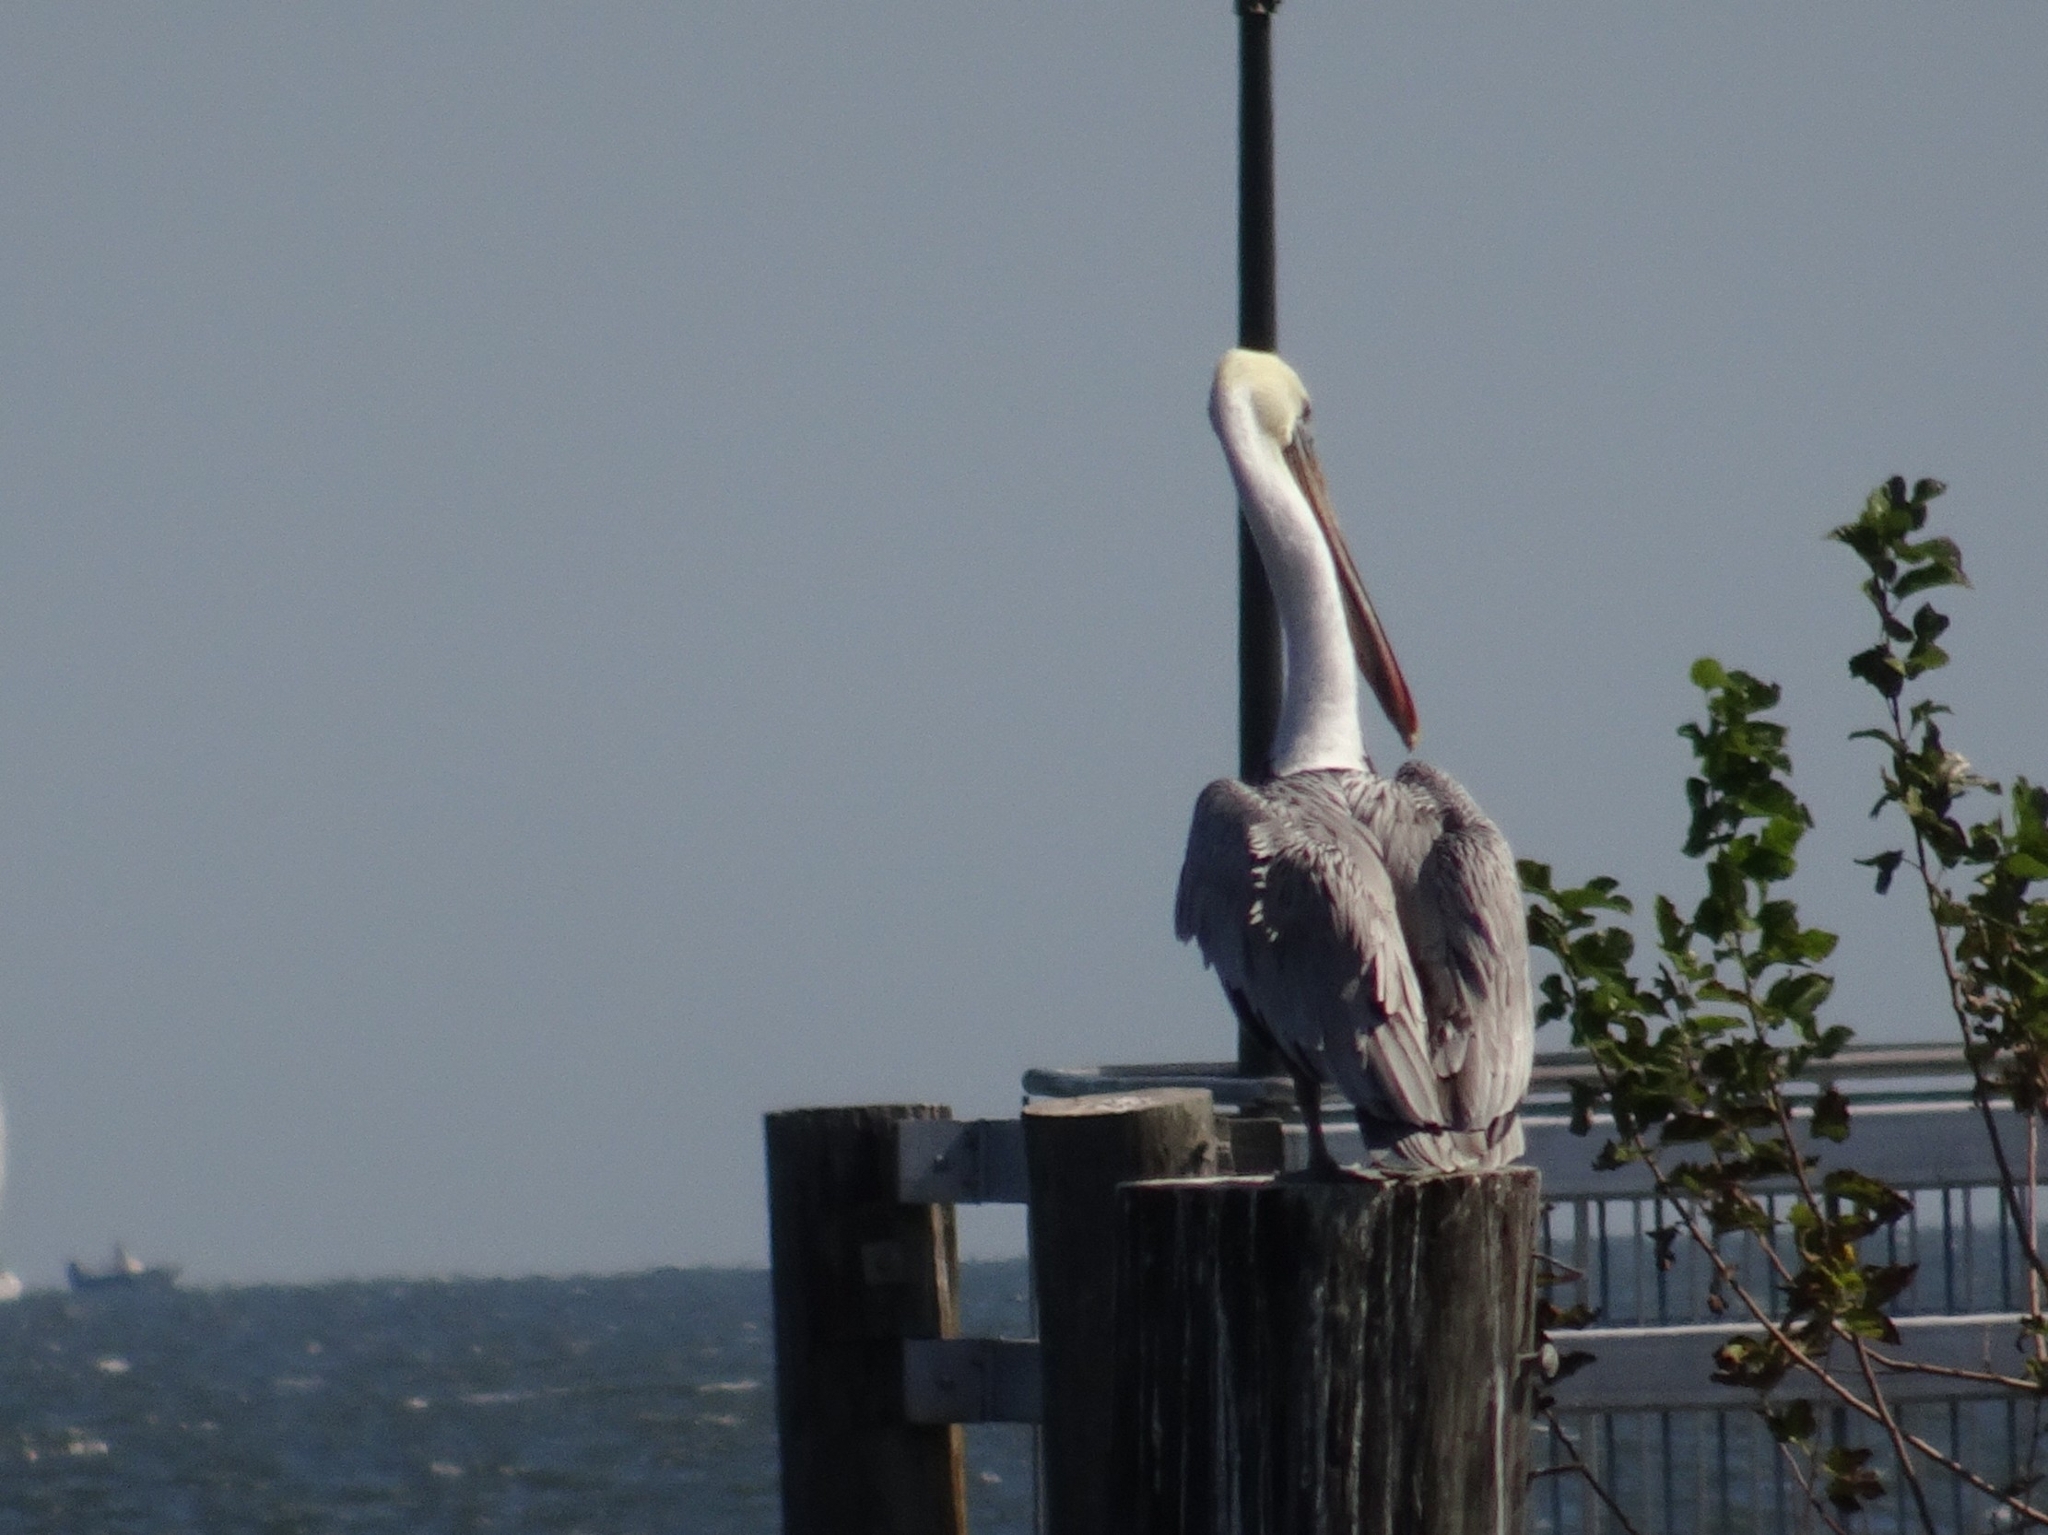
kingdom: Animalia
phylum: Chordata
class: Aves
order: Pelecaniformes
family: Pelecanidae
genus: Pelecanus
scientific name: Pelecanus occidentalis
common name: Brown pelican
